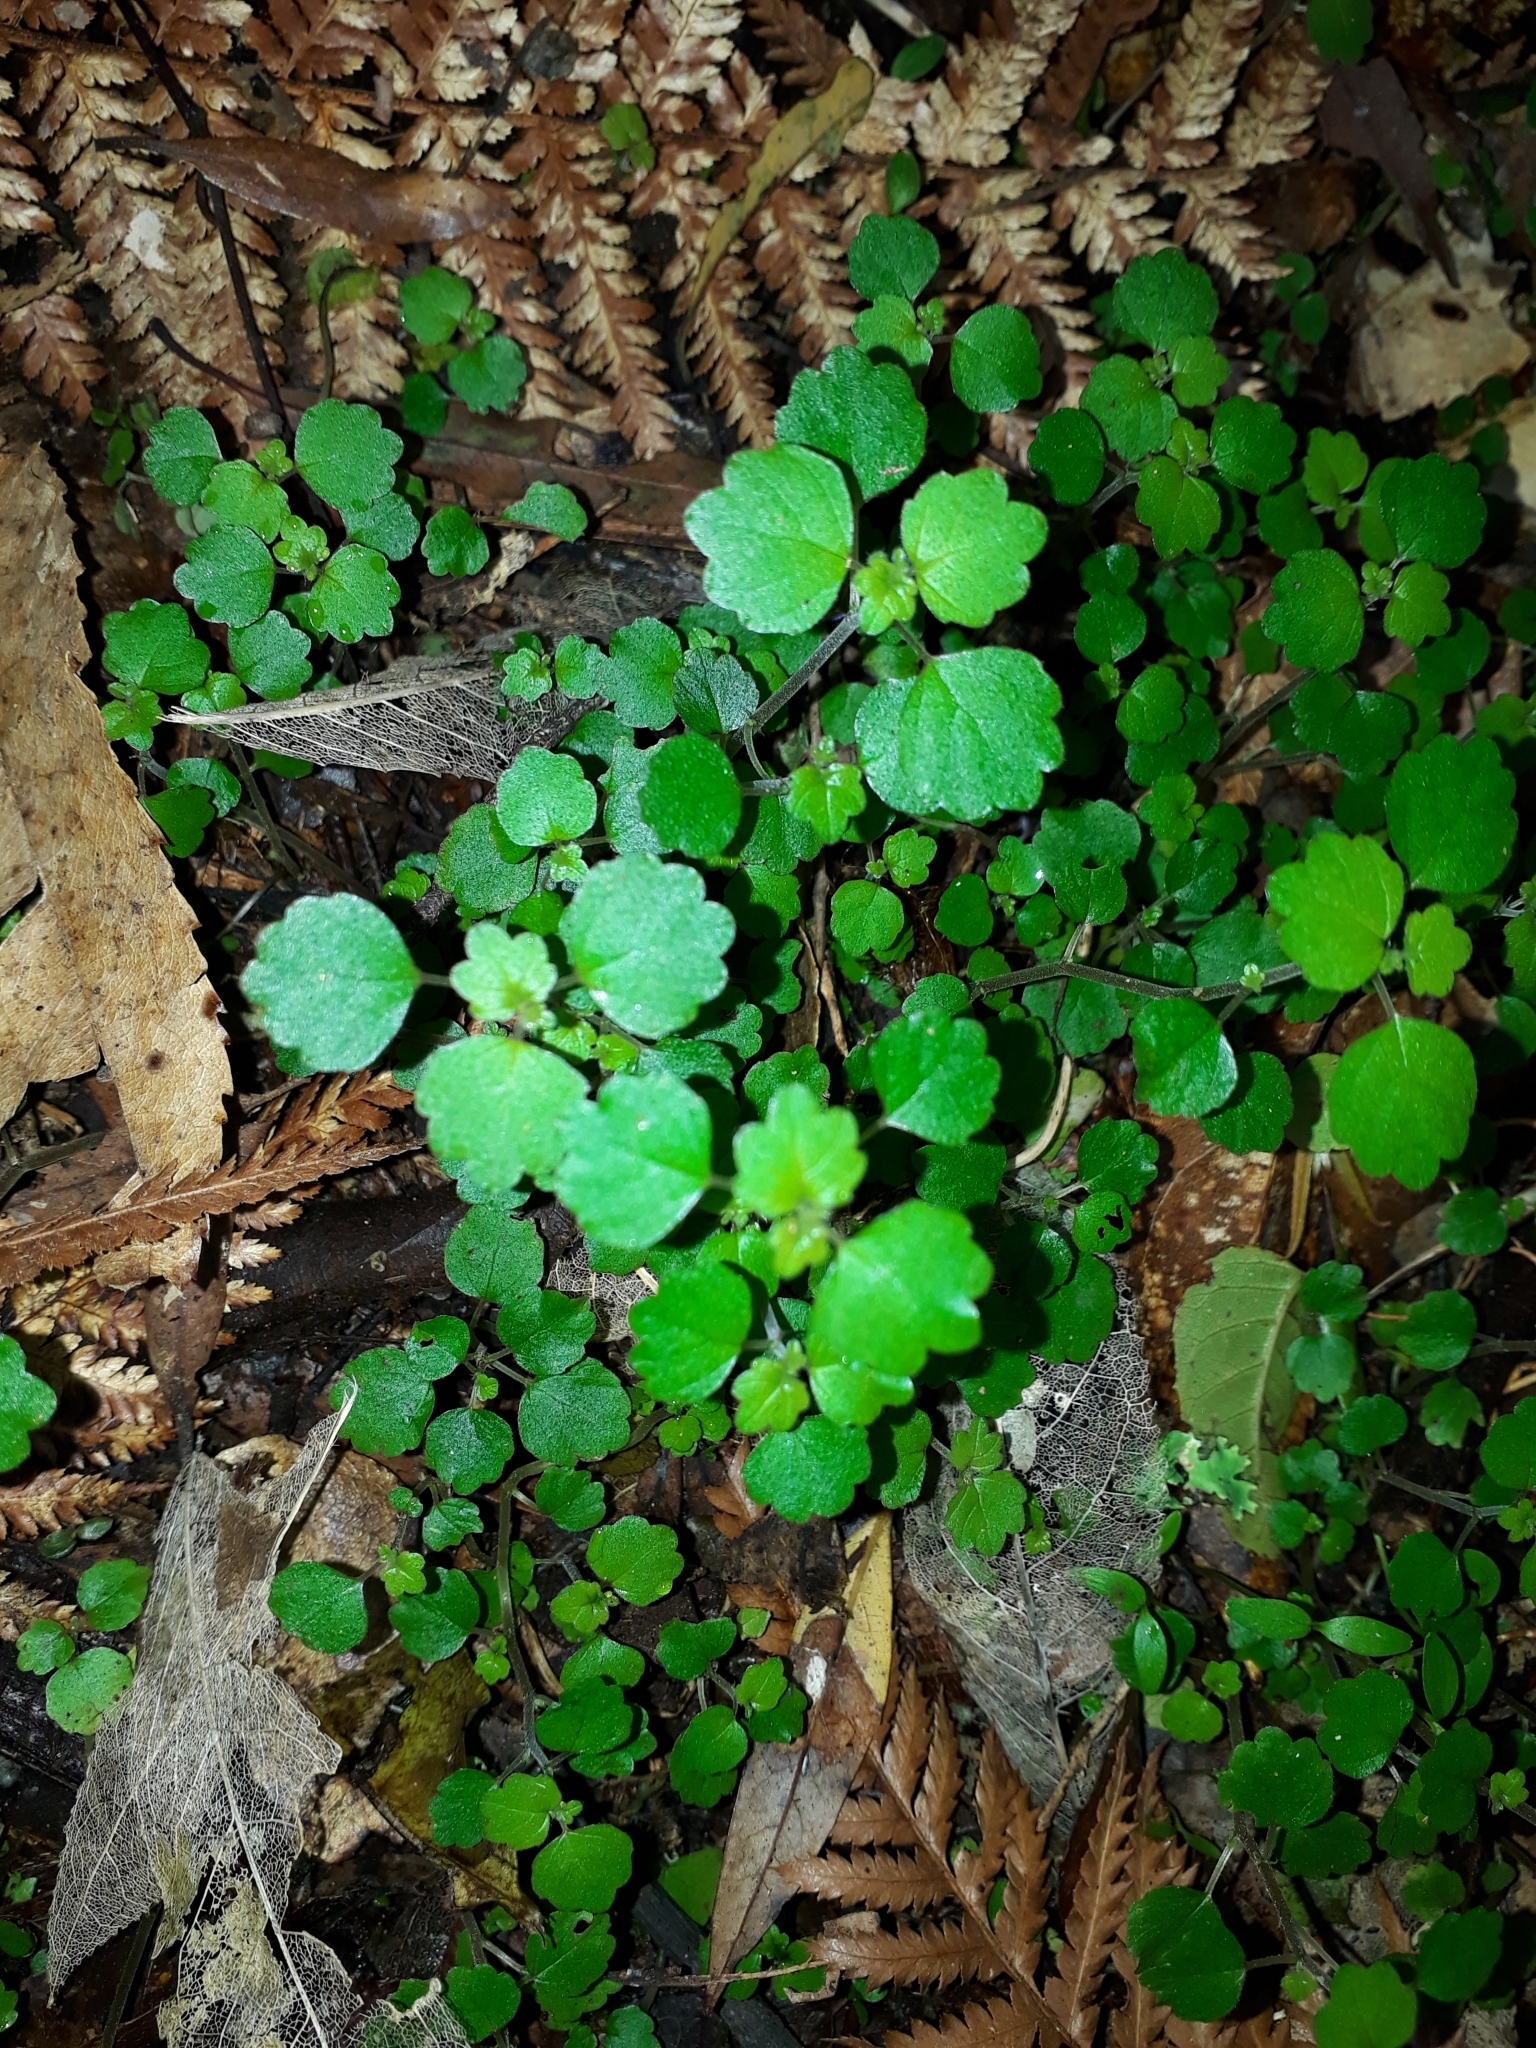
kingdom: Plantae
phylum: Tracheophyta
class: Magnoliopsida
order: Rosales
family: Urticaceae
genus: Australina
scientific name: Australina pusilla
